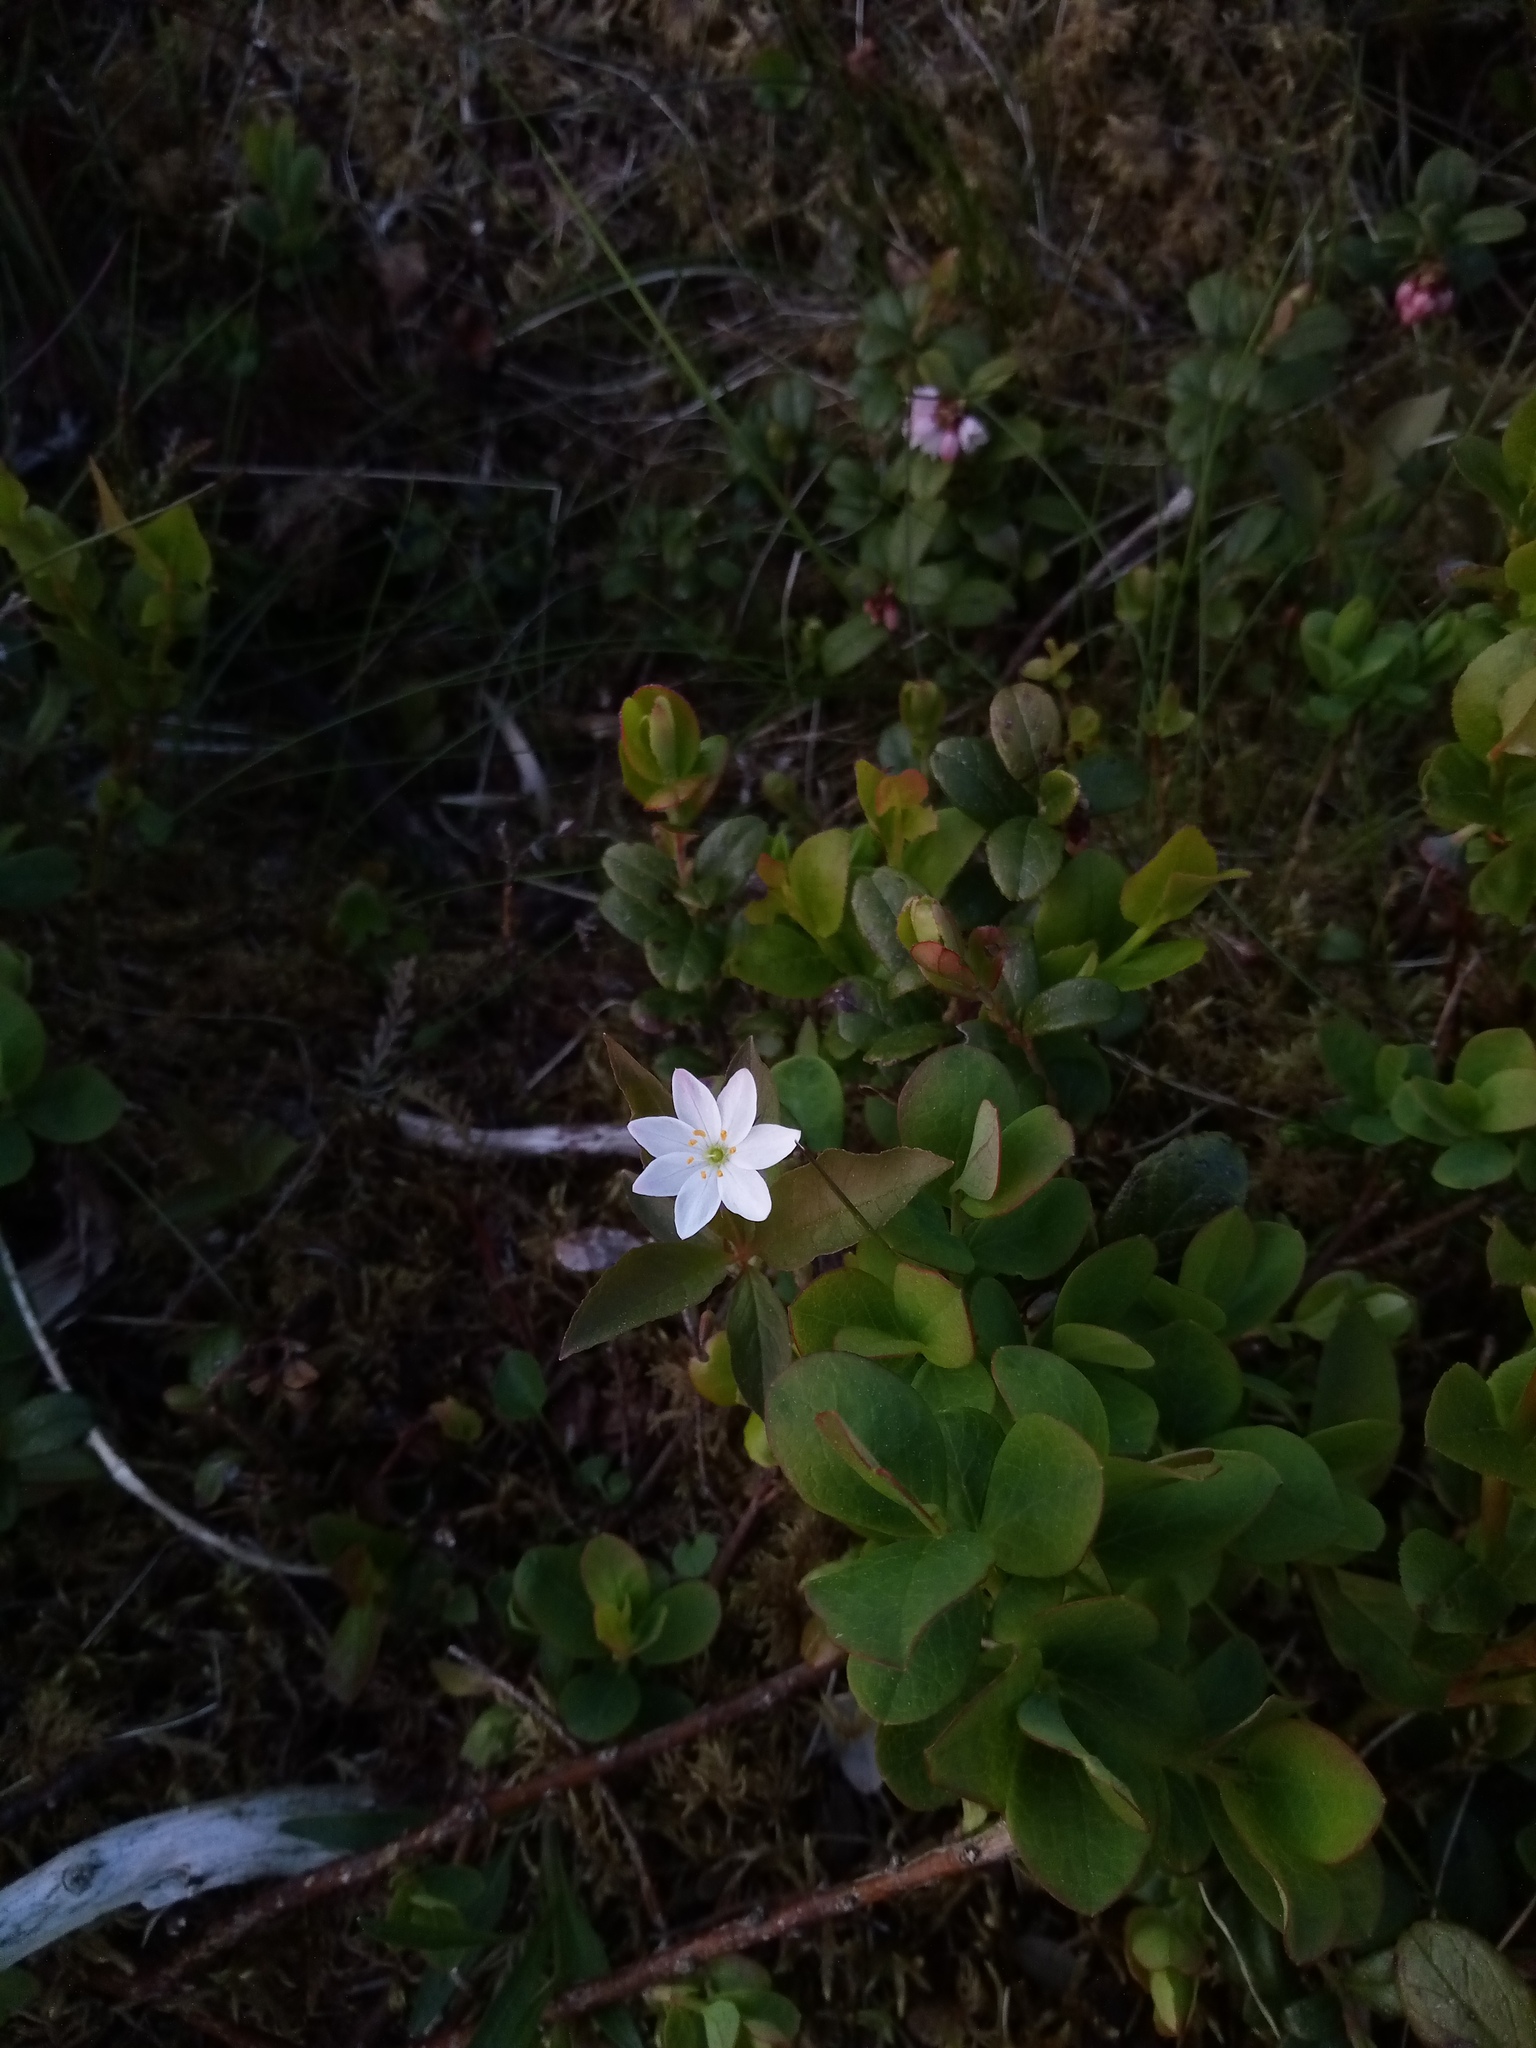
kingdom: Plantae
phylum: Tracheophyta
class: Magnoliopsida
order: Ericales
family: Primulaceae
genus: Lysimachia
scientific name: Lysimachia europaea
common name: Arctic starflower
